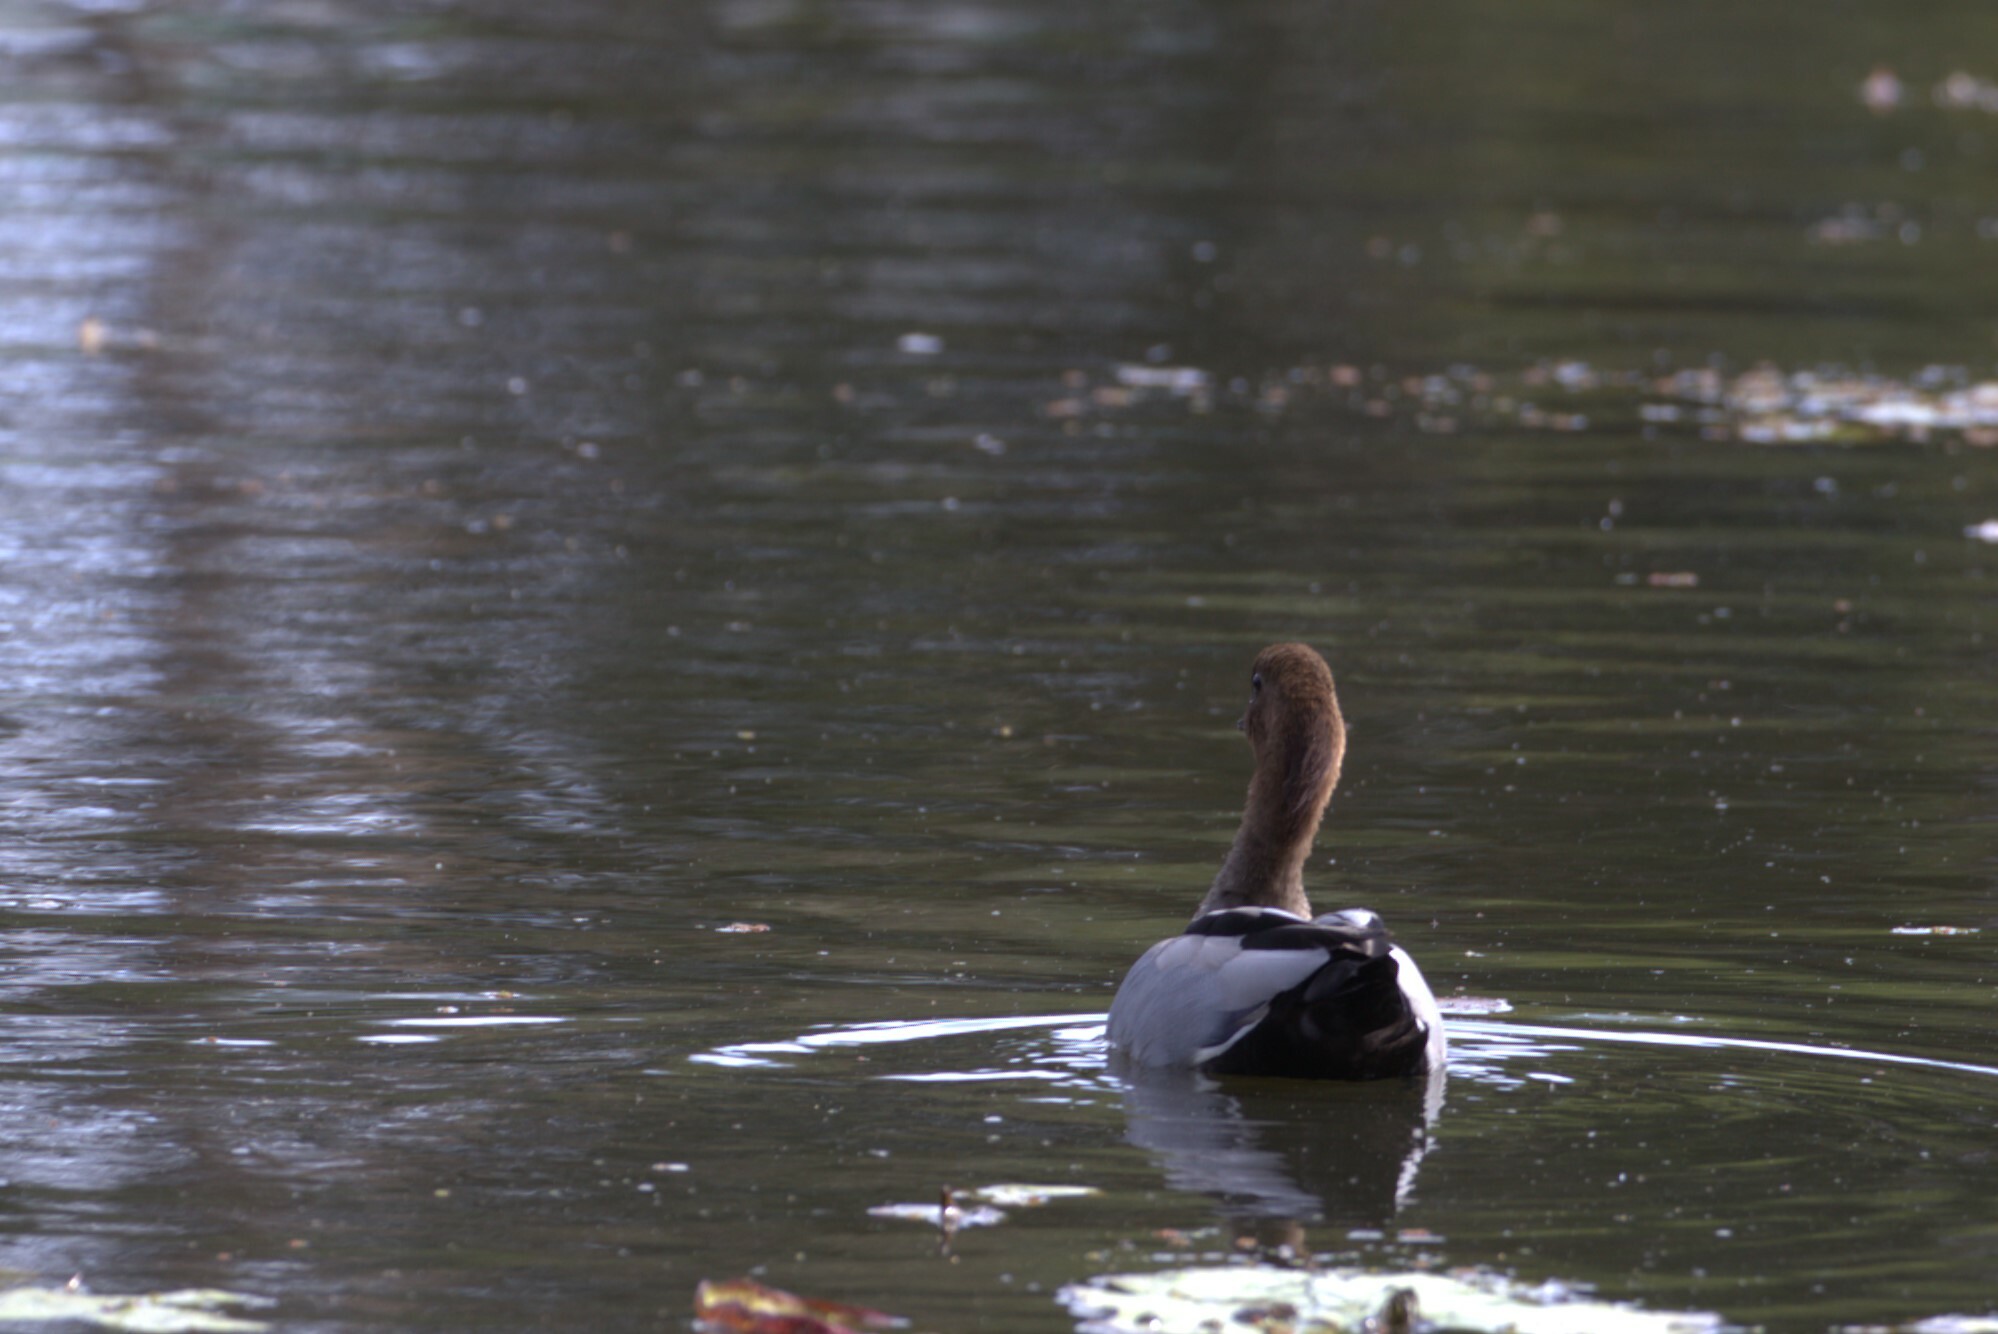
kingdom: Animalia
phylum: Chordata
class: Aves
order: Anseriformes
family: Anatidae
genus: Chenonetta
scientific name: Chenonetta jubata
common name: Maned duck
